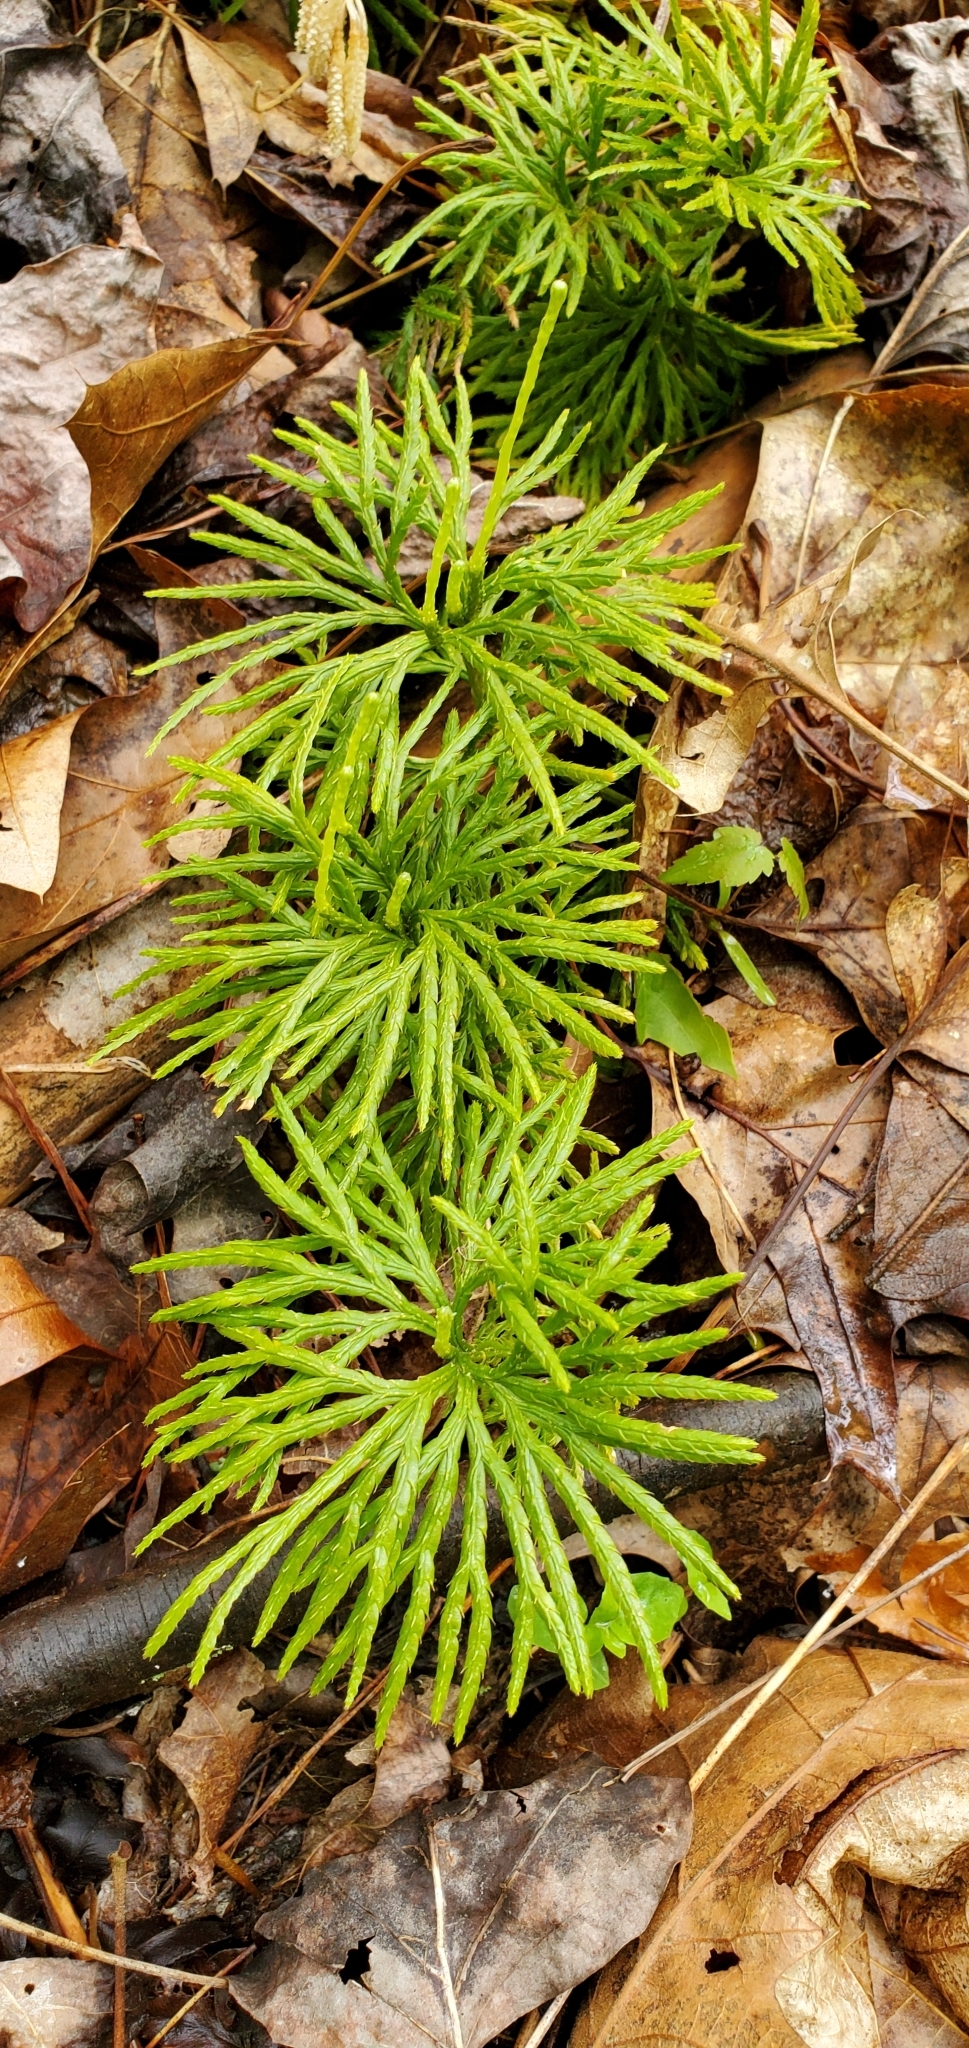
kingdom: Plantae
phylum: Tracheophyta
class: Lycopodiopsida
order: Lycopodiales
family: Lycopodiaceae
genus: Diphasiastrum
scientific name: Diphasiastrum digitatum
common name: Southern running-pine
